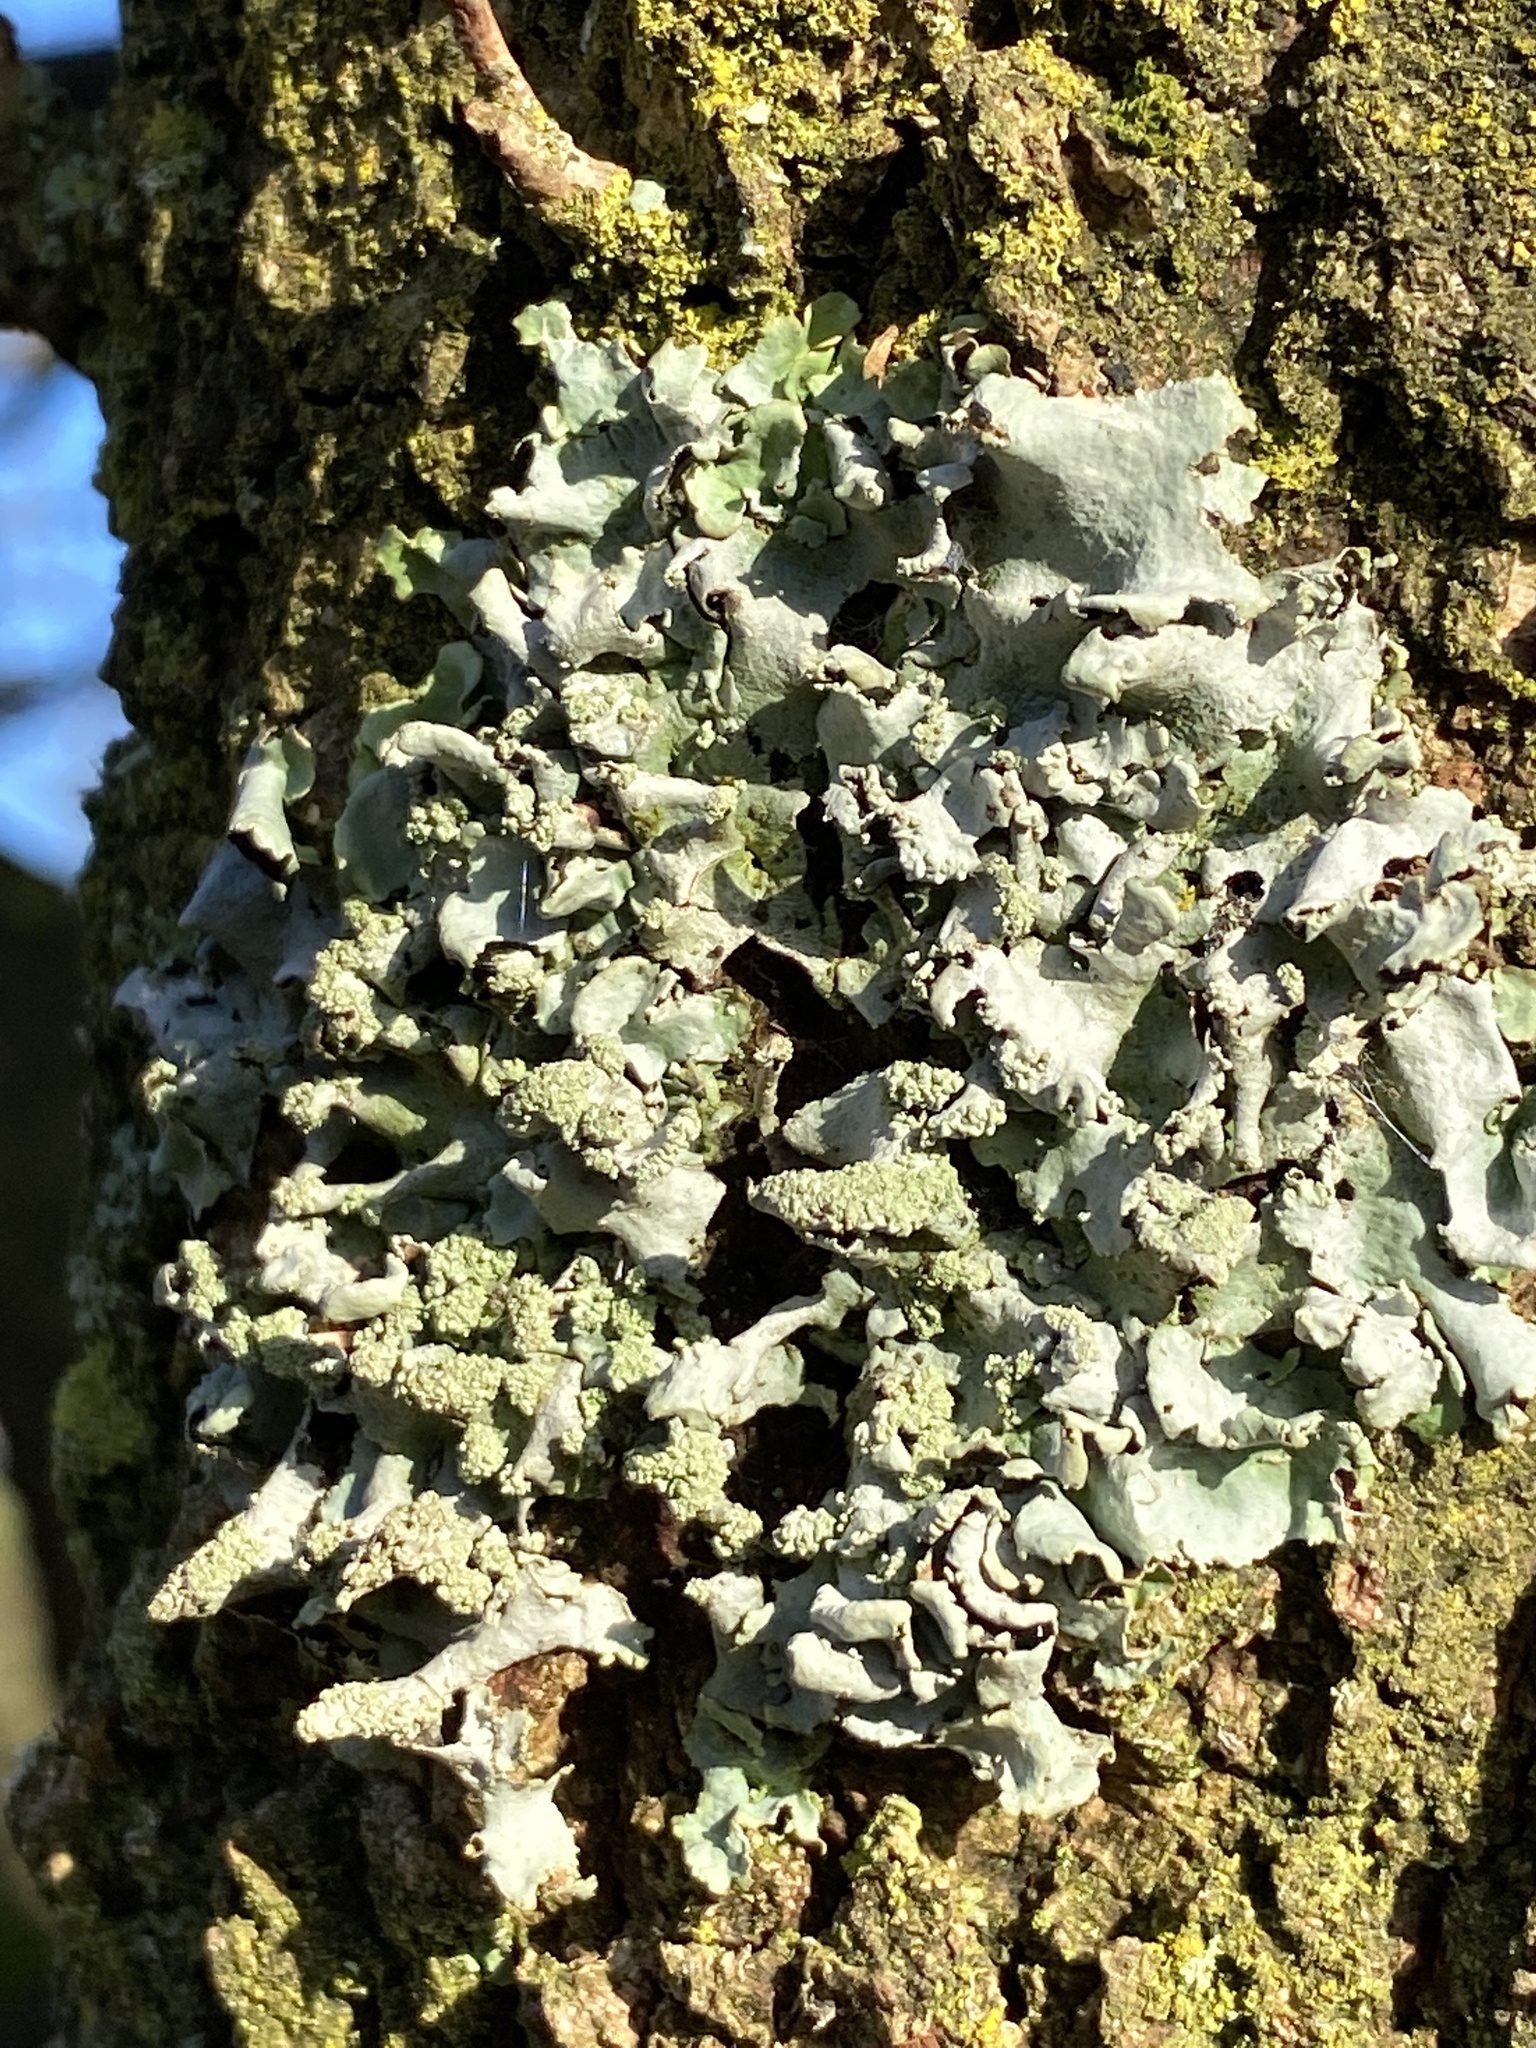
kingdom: Fungi
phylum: Ascomycota
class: Lecanoromycetes
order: Lecanorales
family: Parmeliaceae
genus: Hypotrachyna
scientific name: Hypotrachyna afrorevoluta
